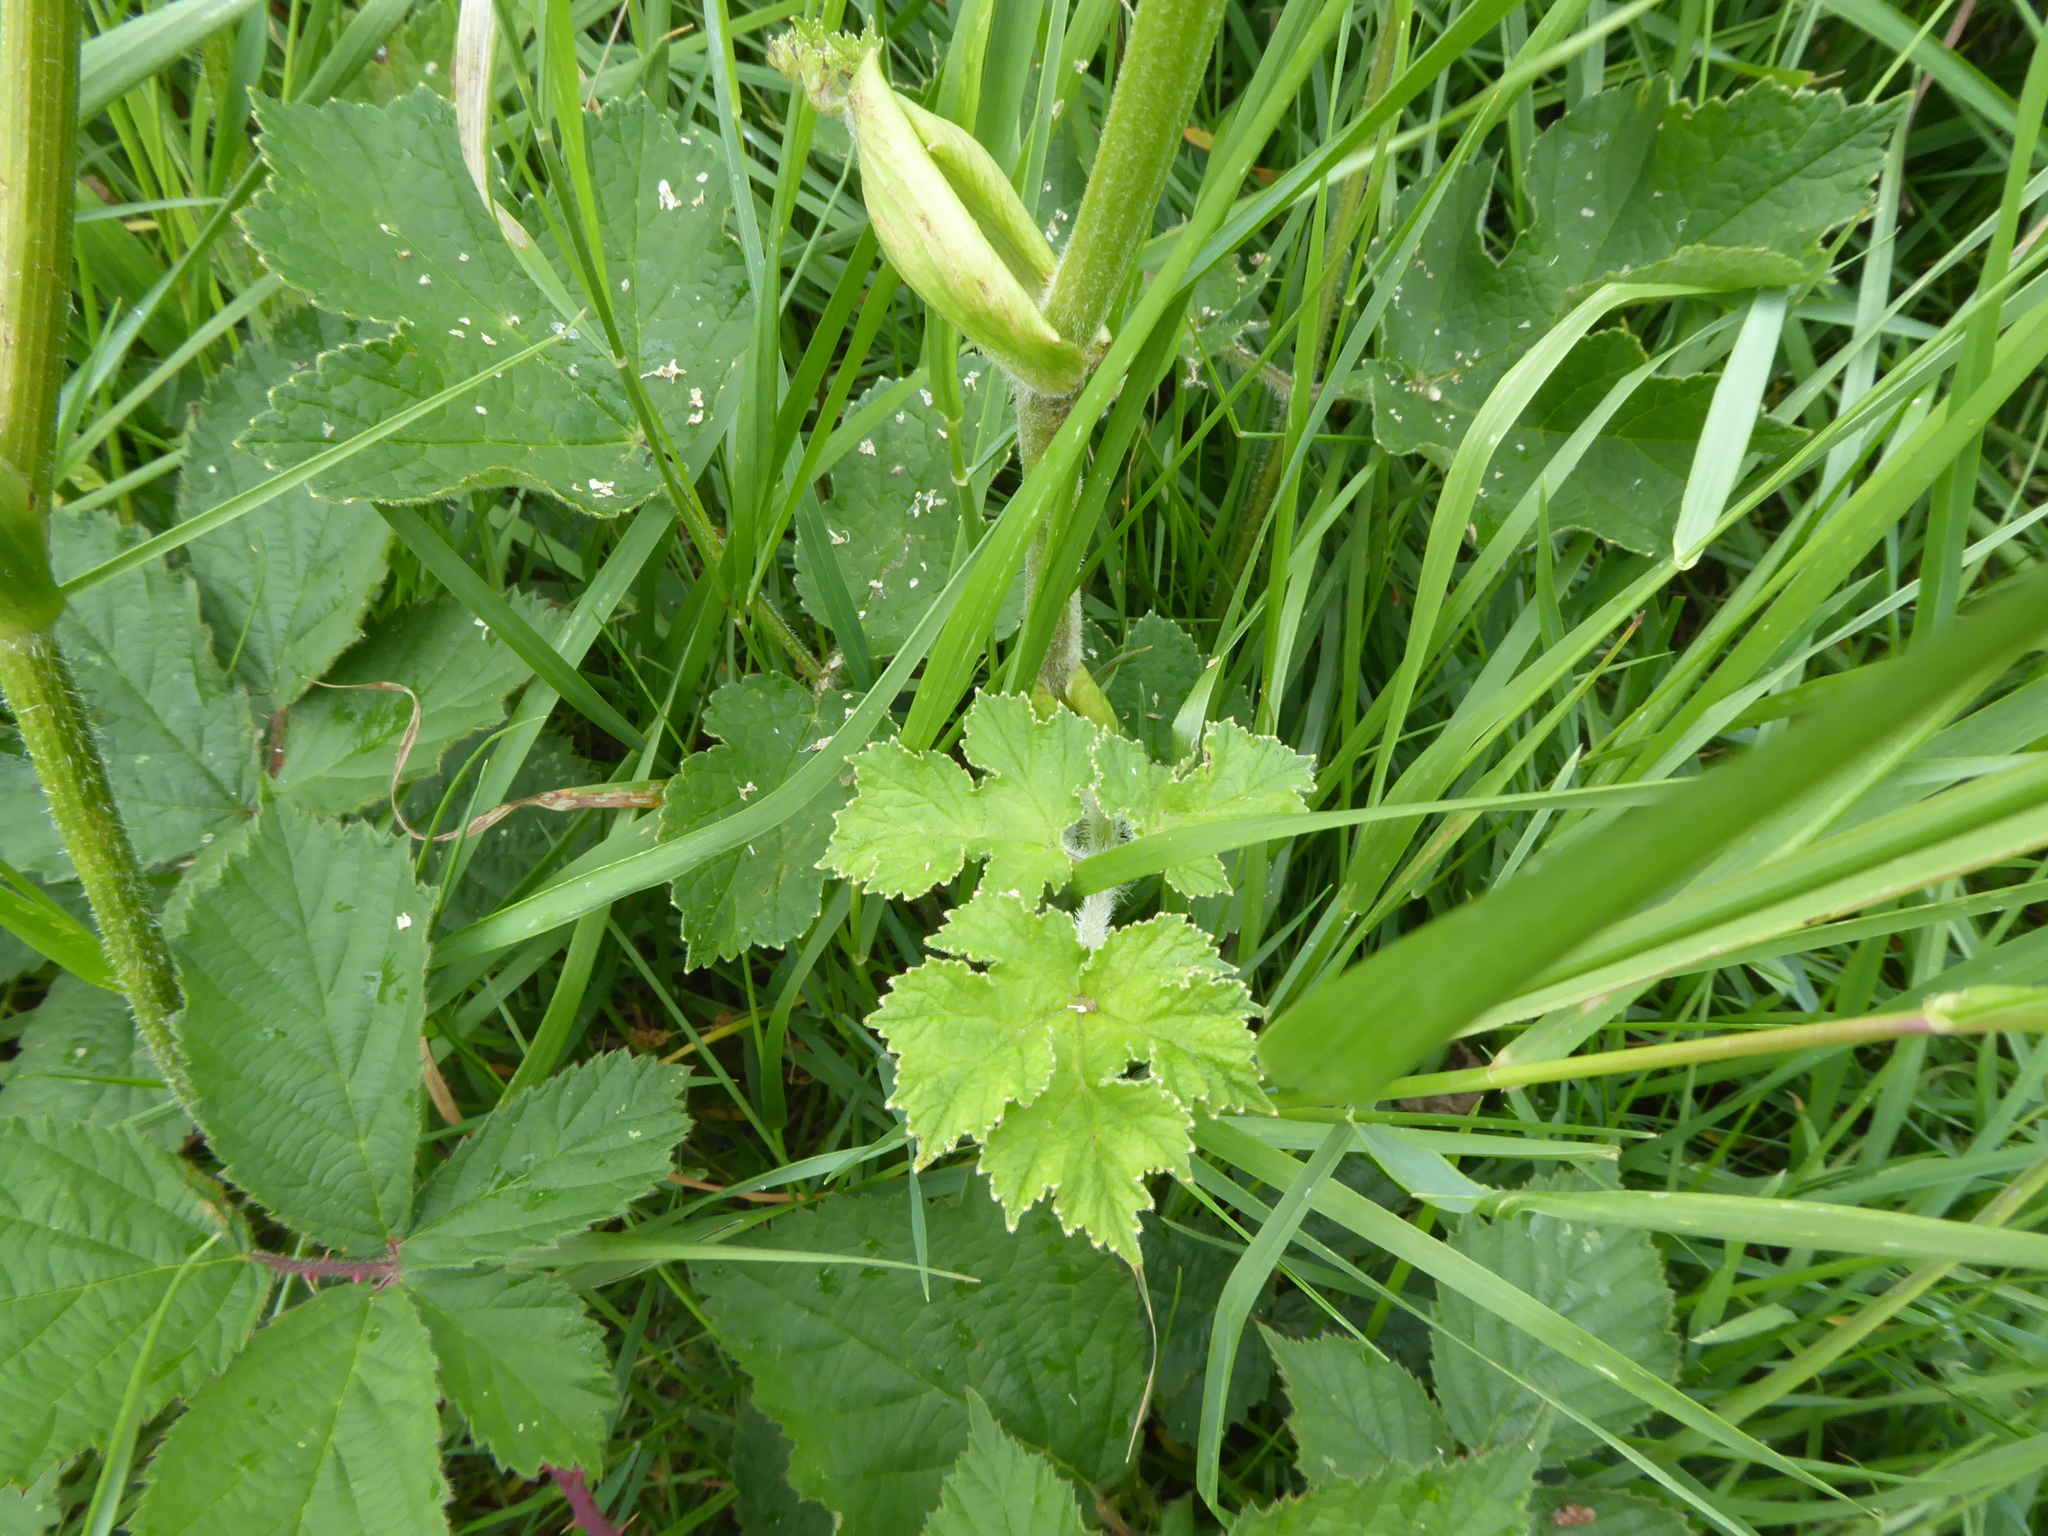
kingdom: Plantae
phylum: Tracheophyta
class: Magnoliopsida
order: Apiales
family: Apiaceae
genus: Heracleum
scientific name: Heracleum sphondylium
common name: Hogweed
